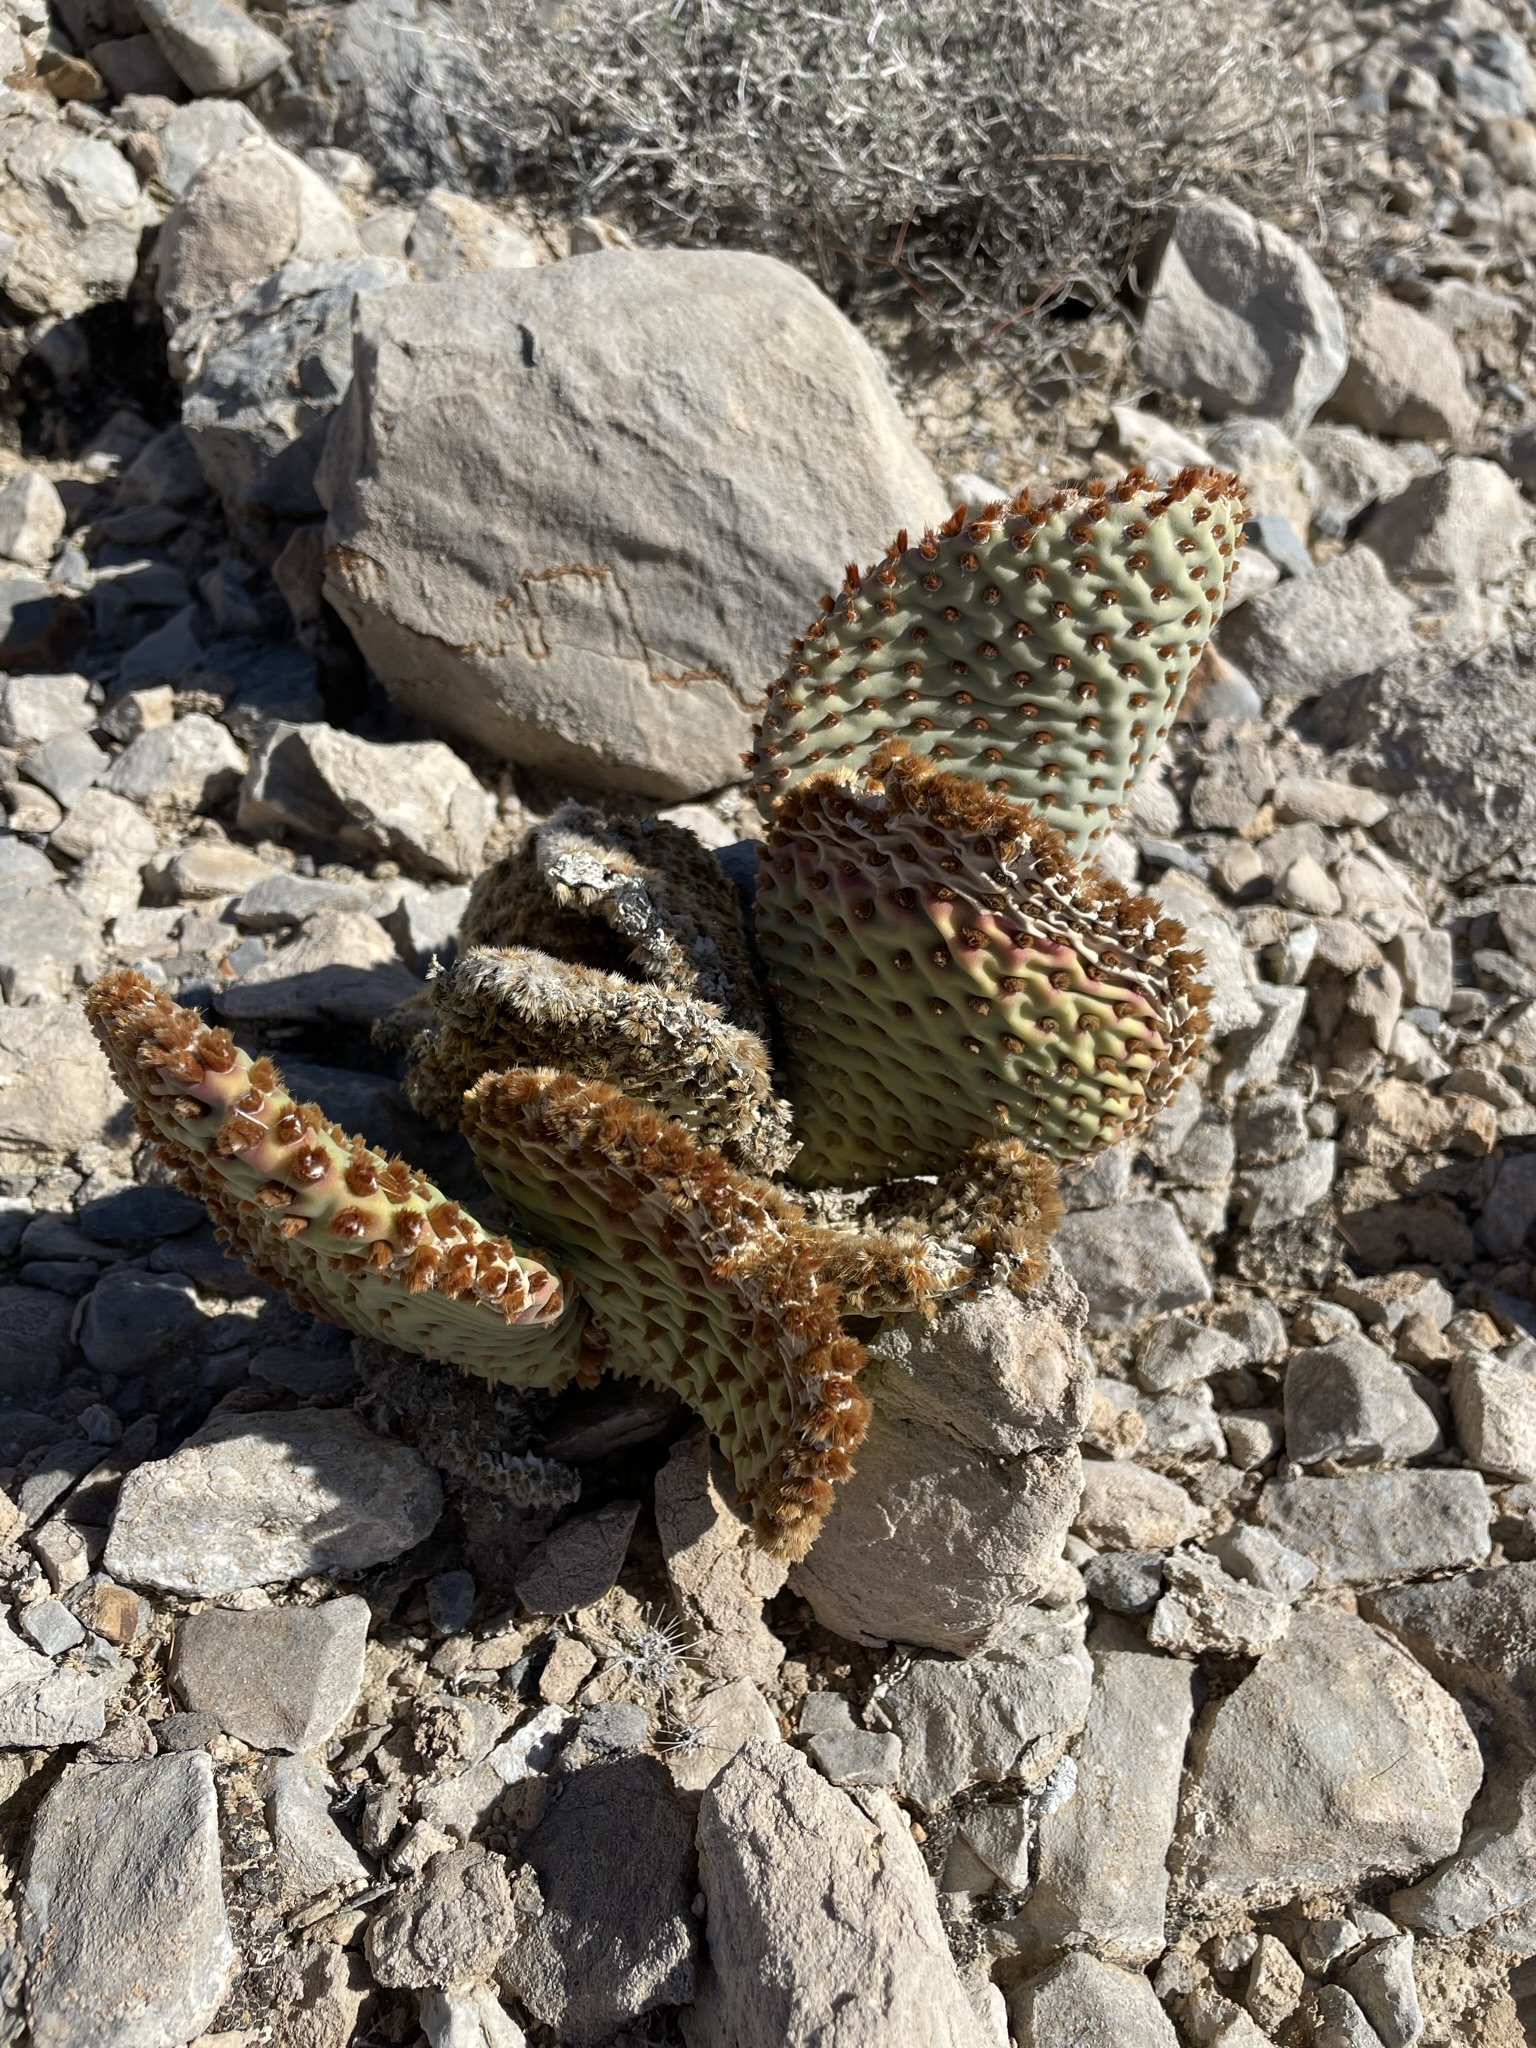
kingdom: Plantae
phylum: Tracheophyta
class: Magnoliopsida
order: Caryophyllales
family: Cactaceae
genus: Opuntia
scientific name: Opuntia basilaris
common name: Beavertail prickly-pear
